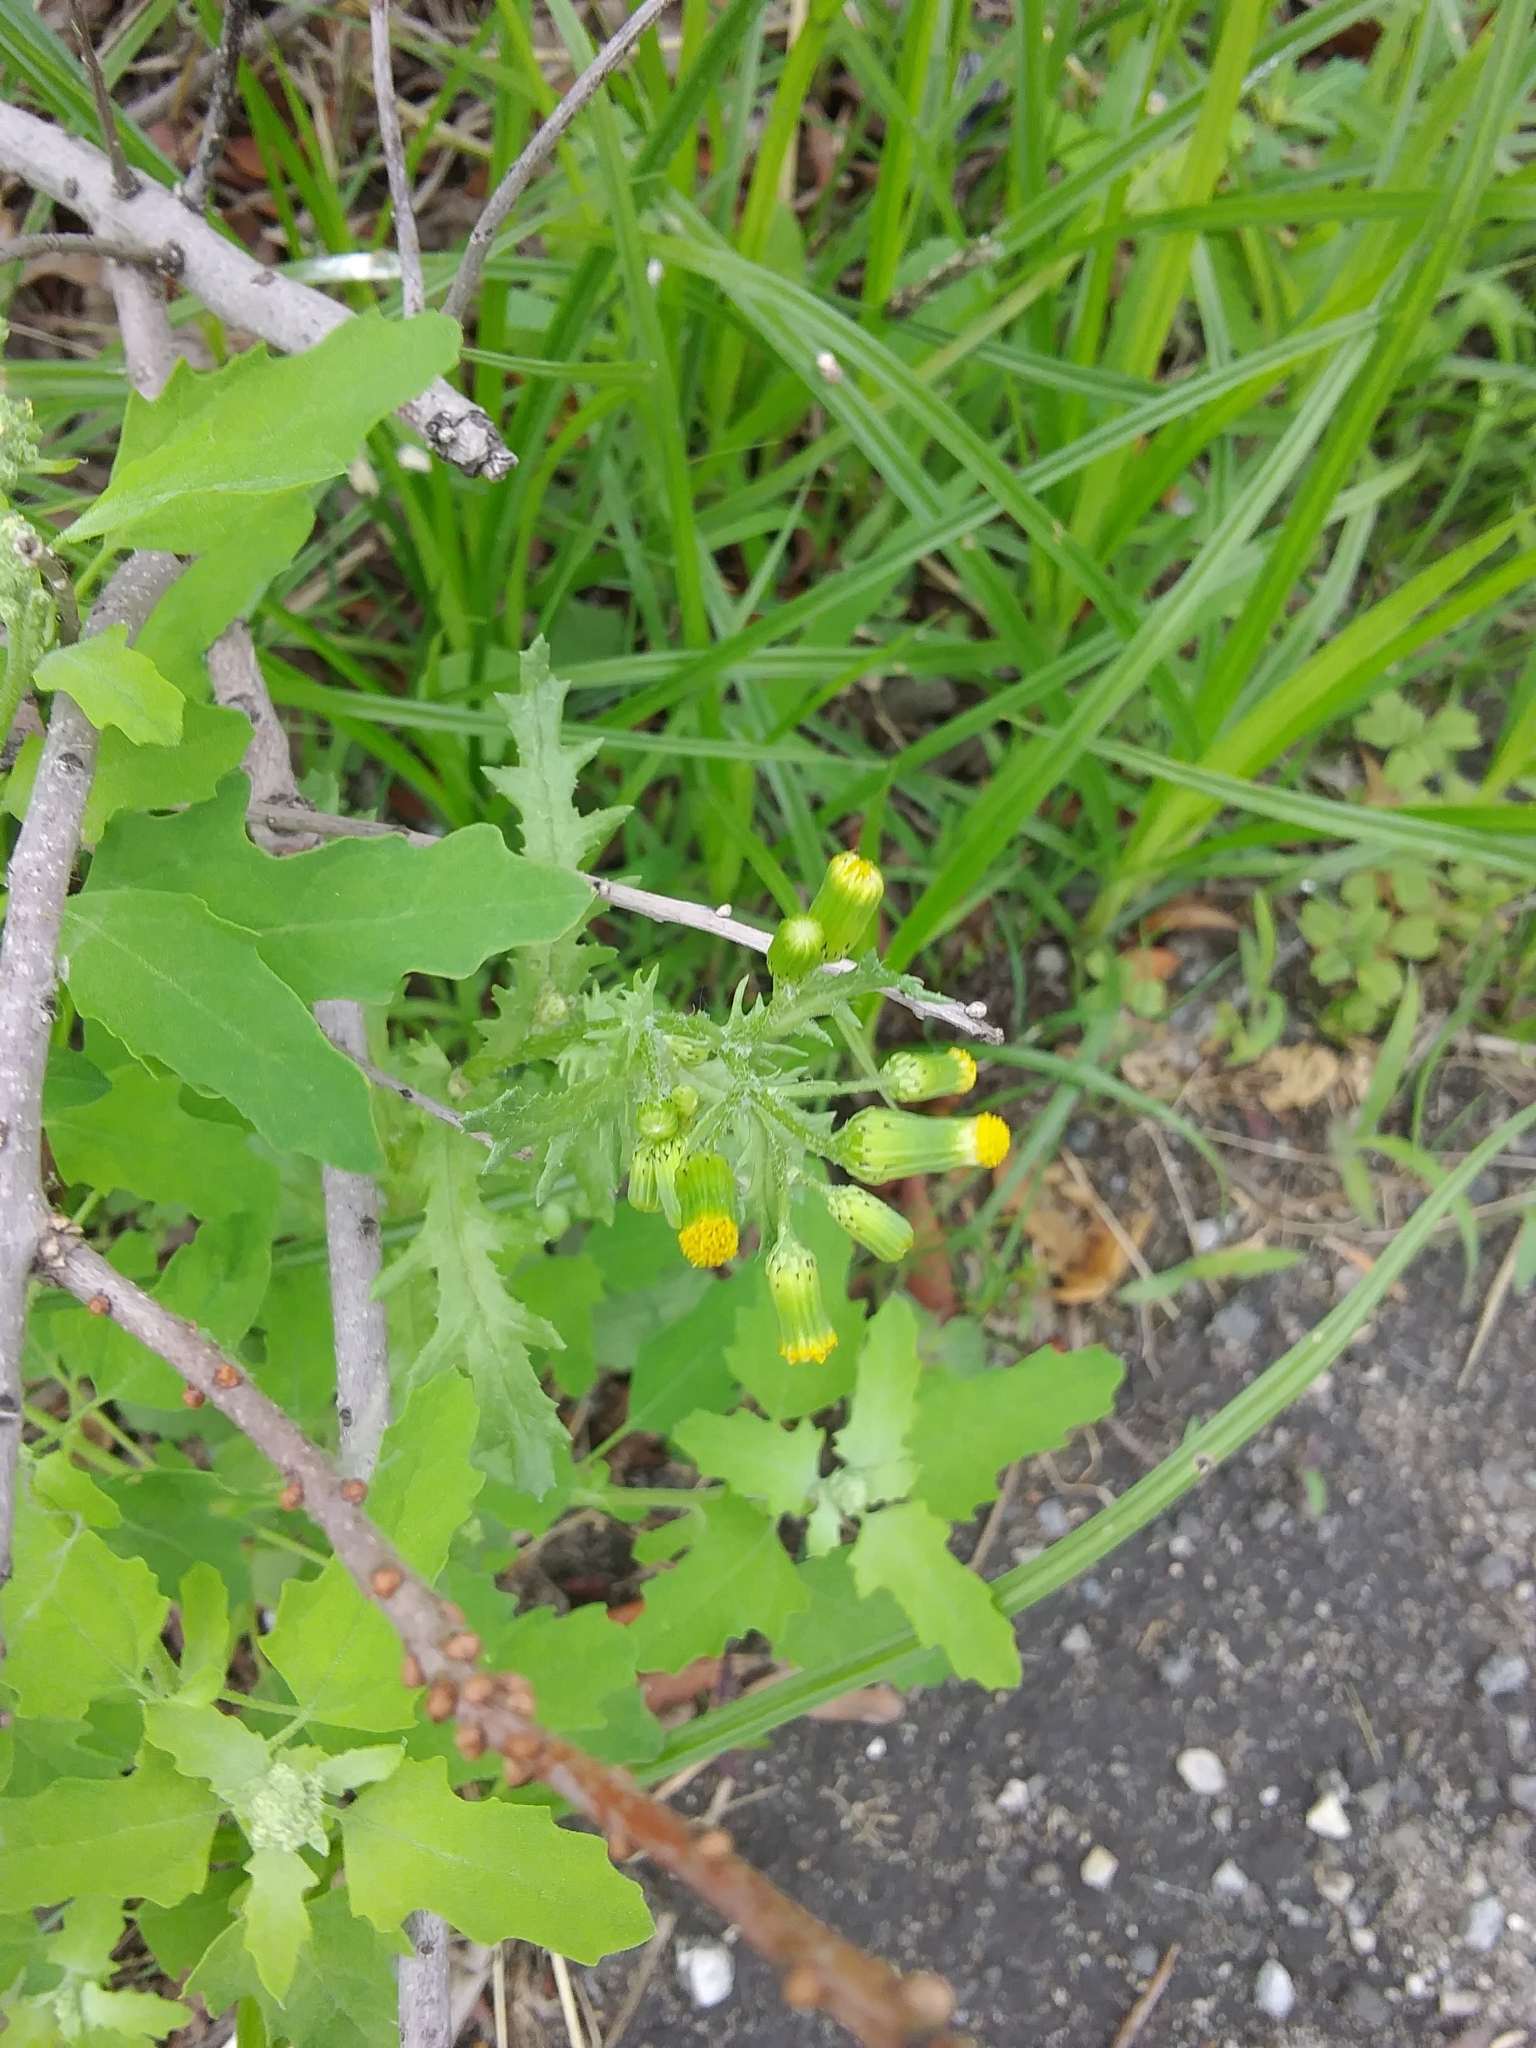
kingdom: Plantae
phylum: Tracheophyta
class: Magnoliopsida
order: Asterales
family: Asteraceae
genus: Senecio
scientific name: Senecio vulgaris
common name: Old-man-in-the-spring
